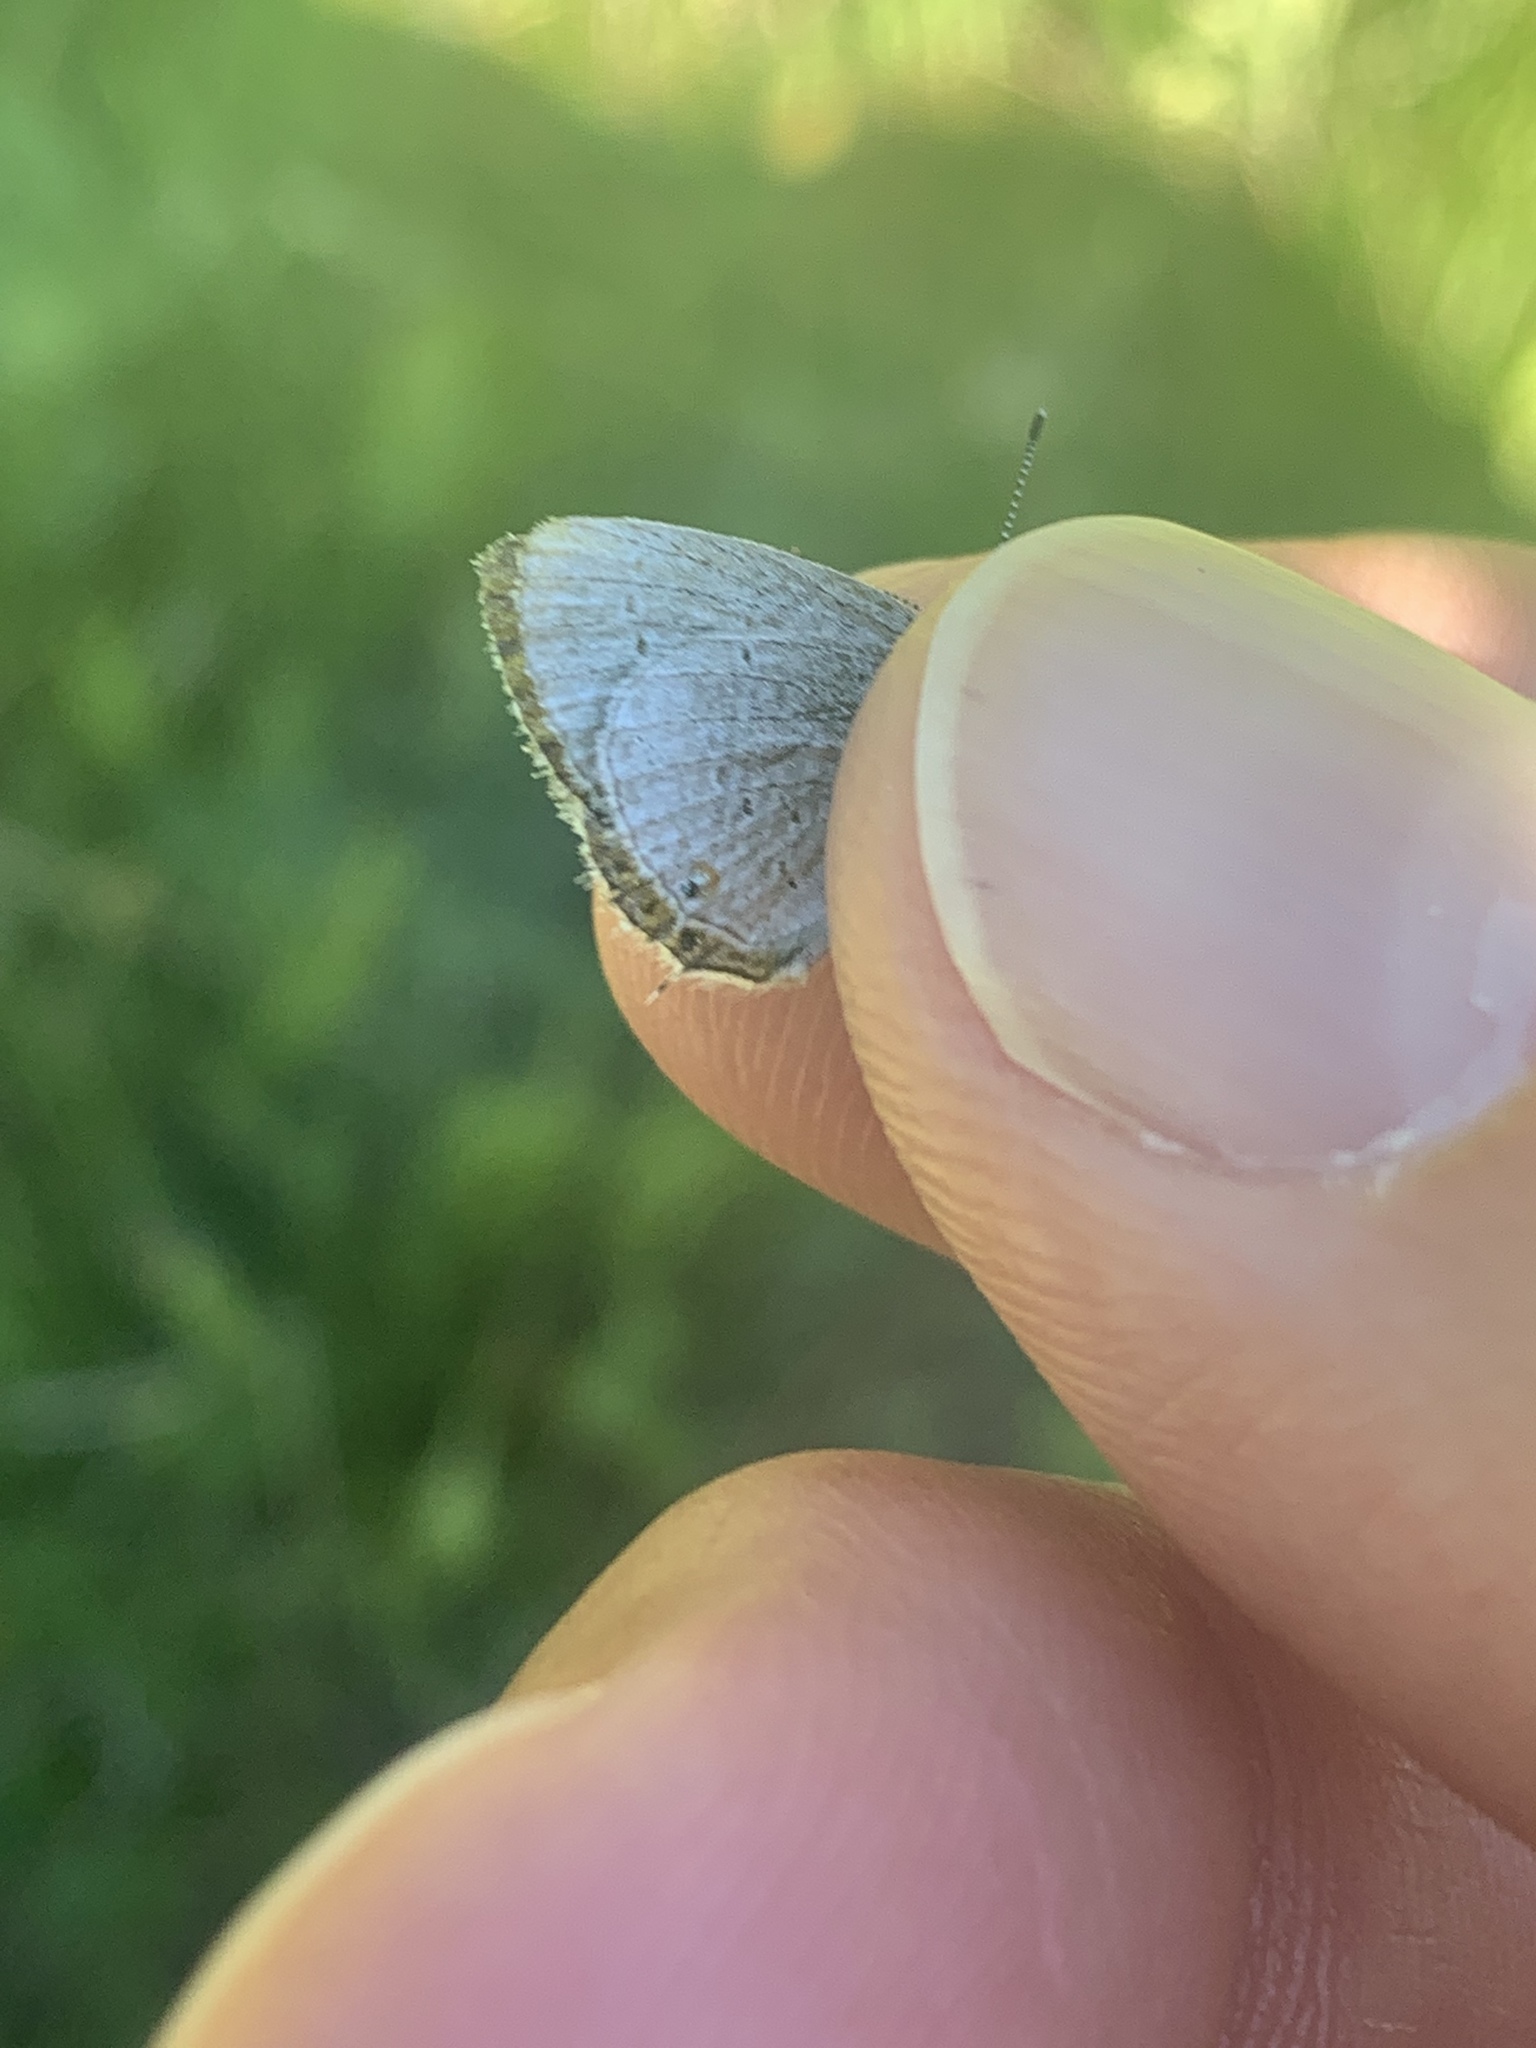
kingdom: Animalia
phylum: Arthropoda
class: Insecta
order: Lepidoptera
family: Lycaenidae
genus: Elkalyce
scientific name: Elkalyce amyntula
